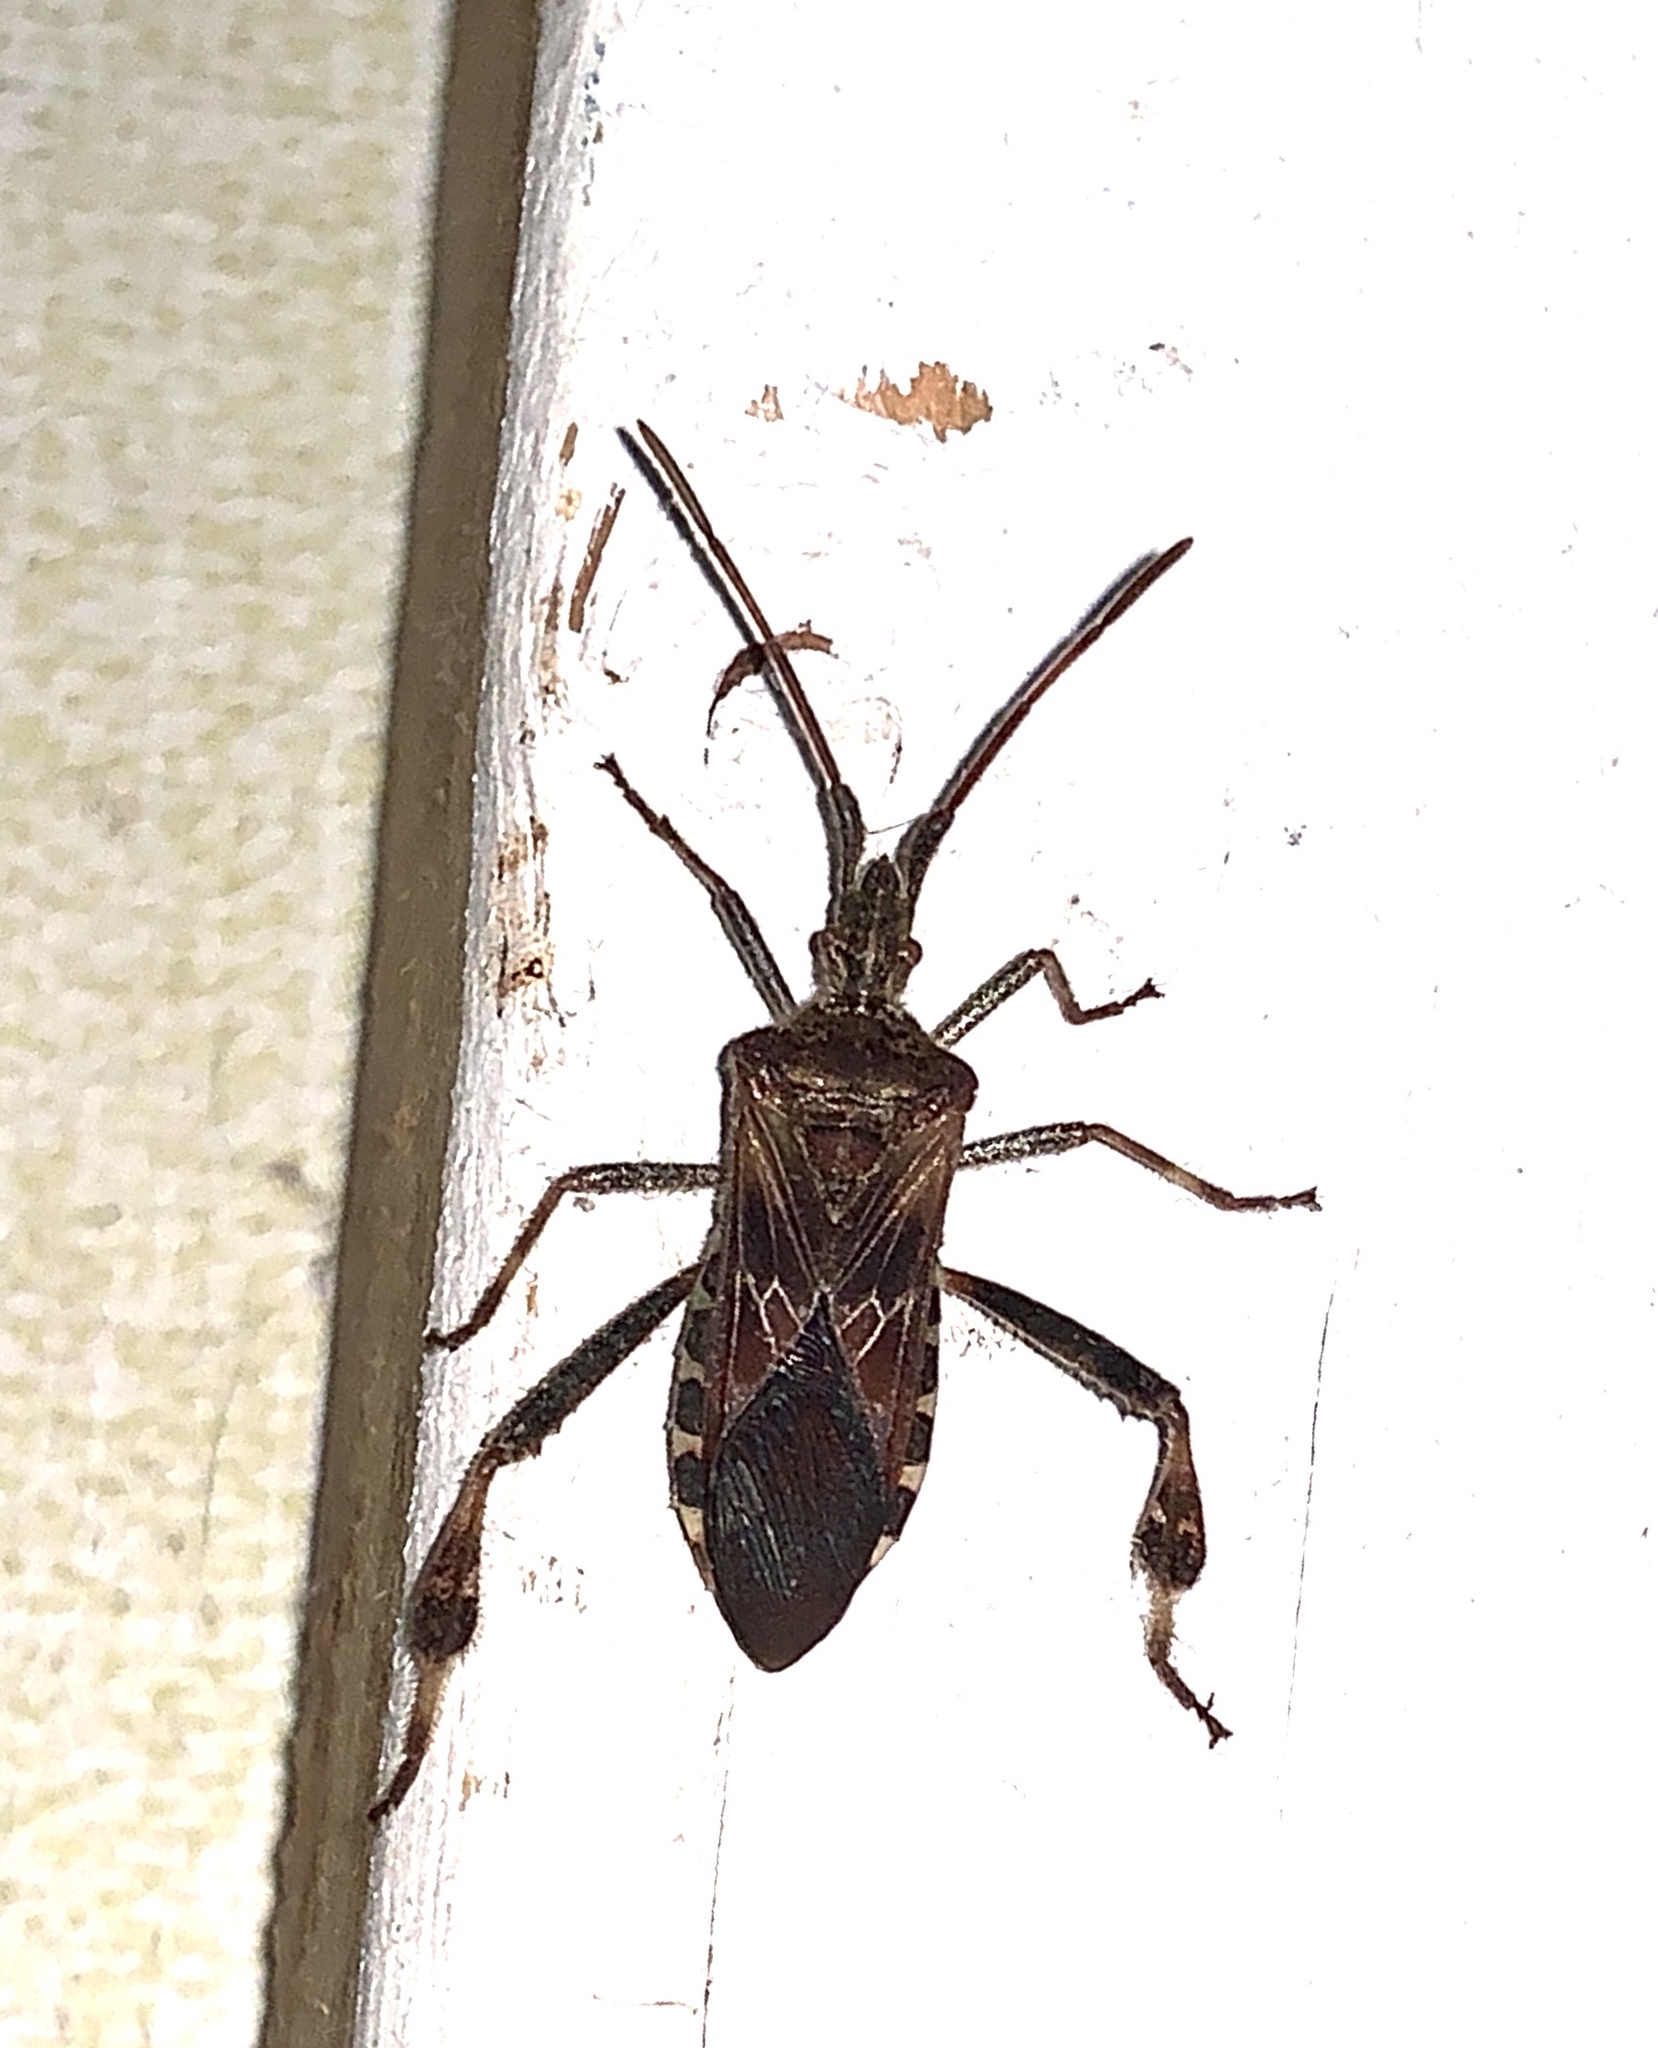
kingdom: Animalia
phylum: Arthropoda
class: Insecta
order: Hemiptera
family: Coreidae
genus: Leptoglossus
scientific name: Leptoglossus occidentalis
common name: Western conifer-seed bug
